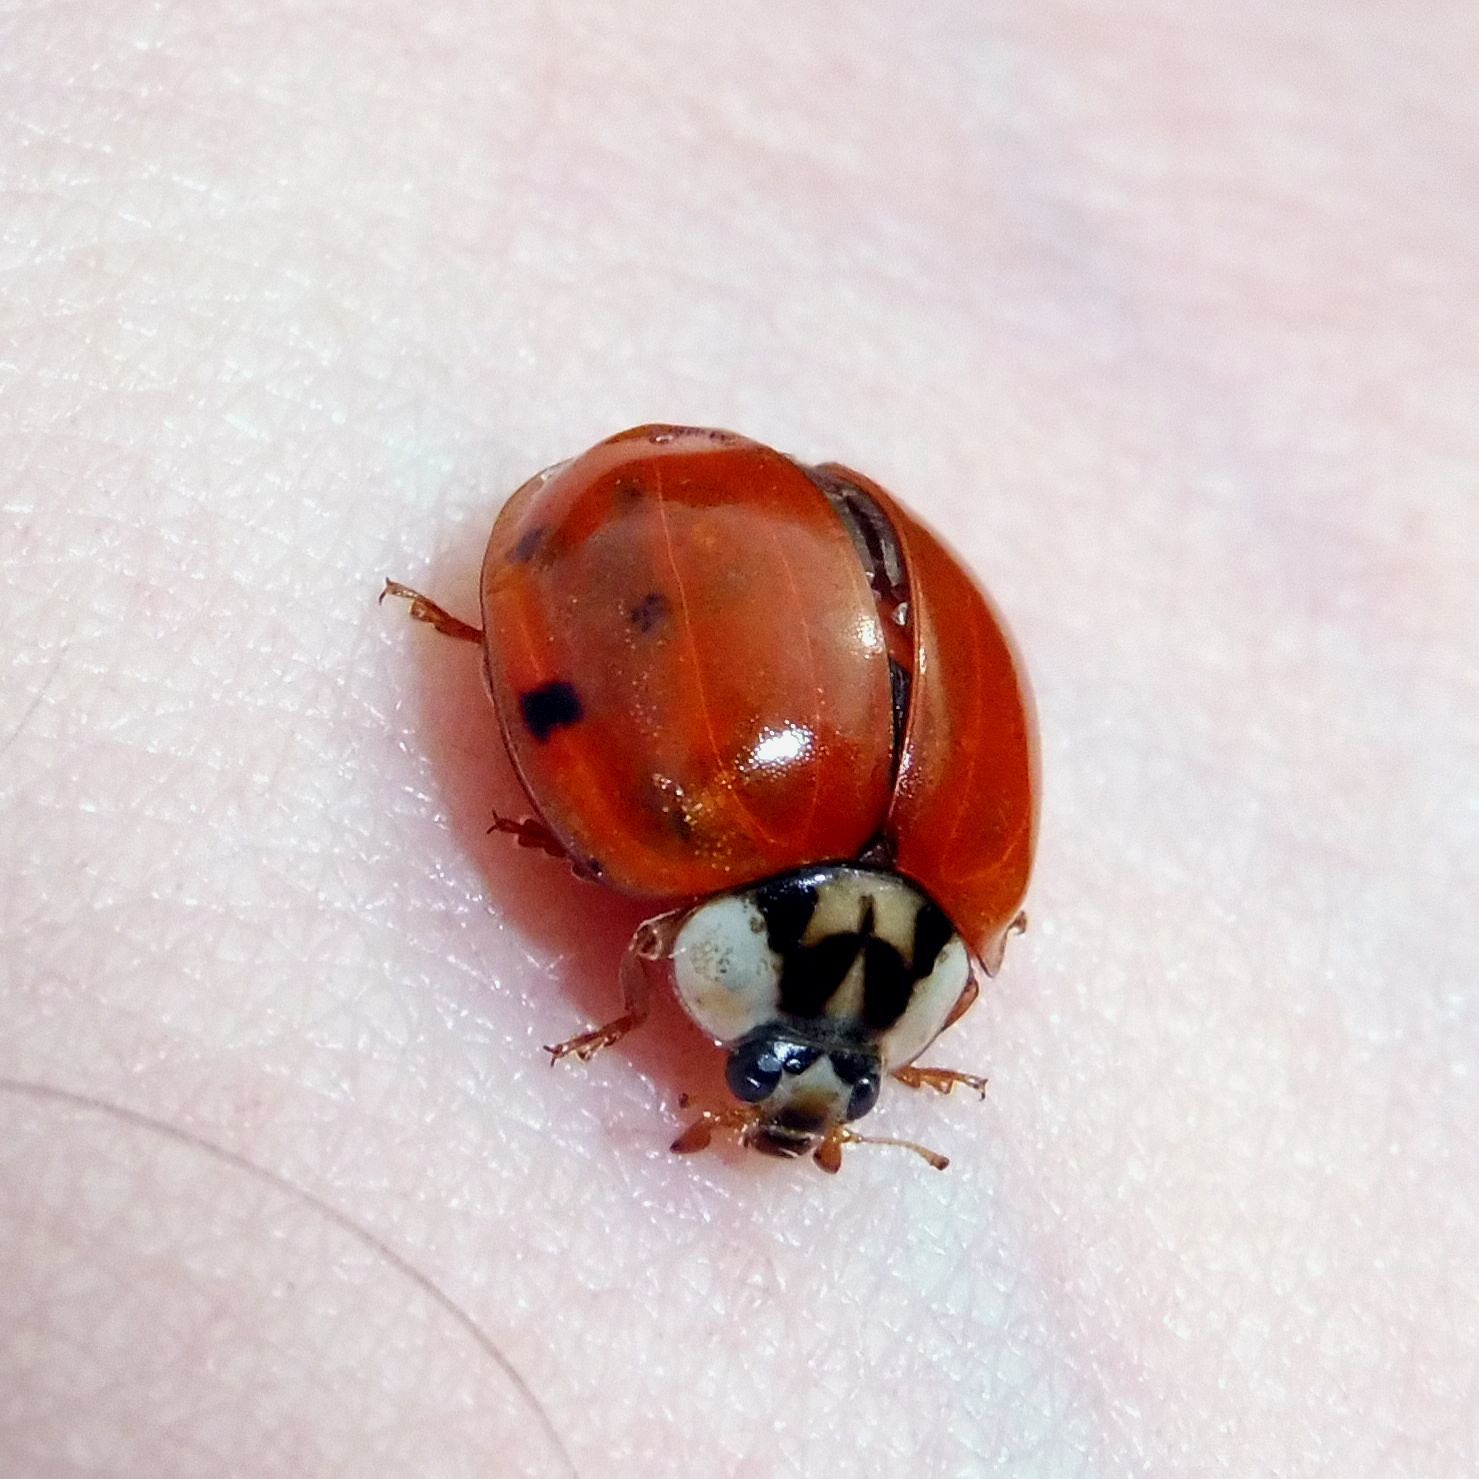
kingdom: Animalia
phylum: Arthropoda
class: Insecta
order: Coleoptera
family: Coccinellidae
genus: Harmonia
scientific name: Harmonia axyridis
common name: Harlequin ladybird
